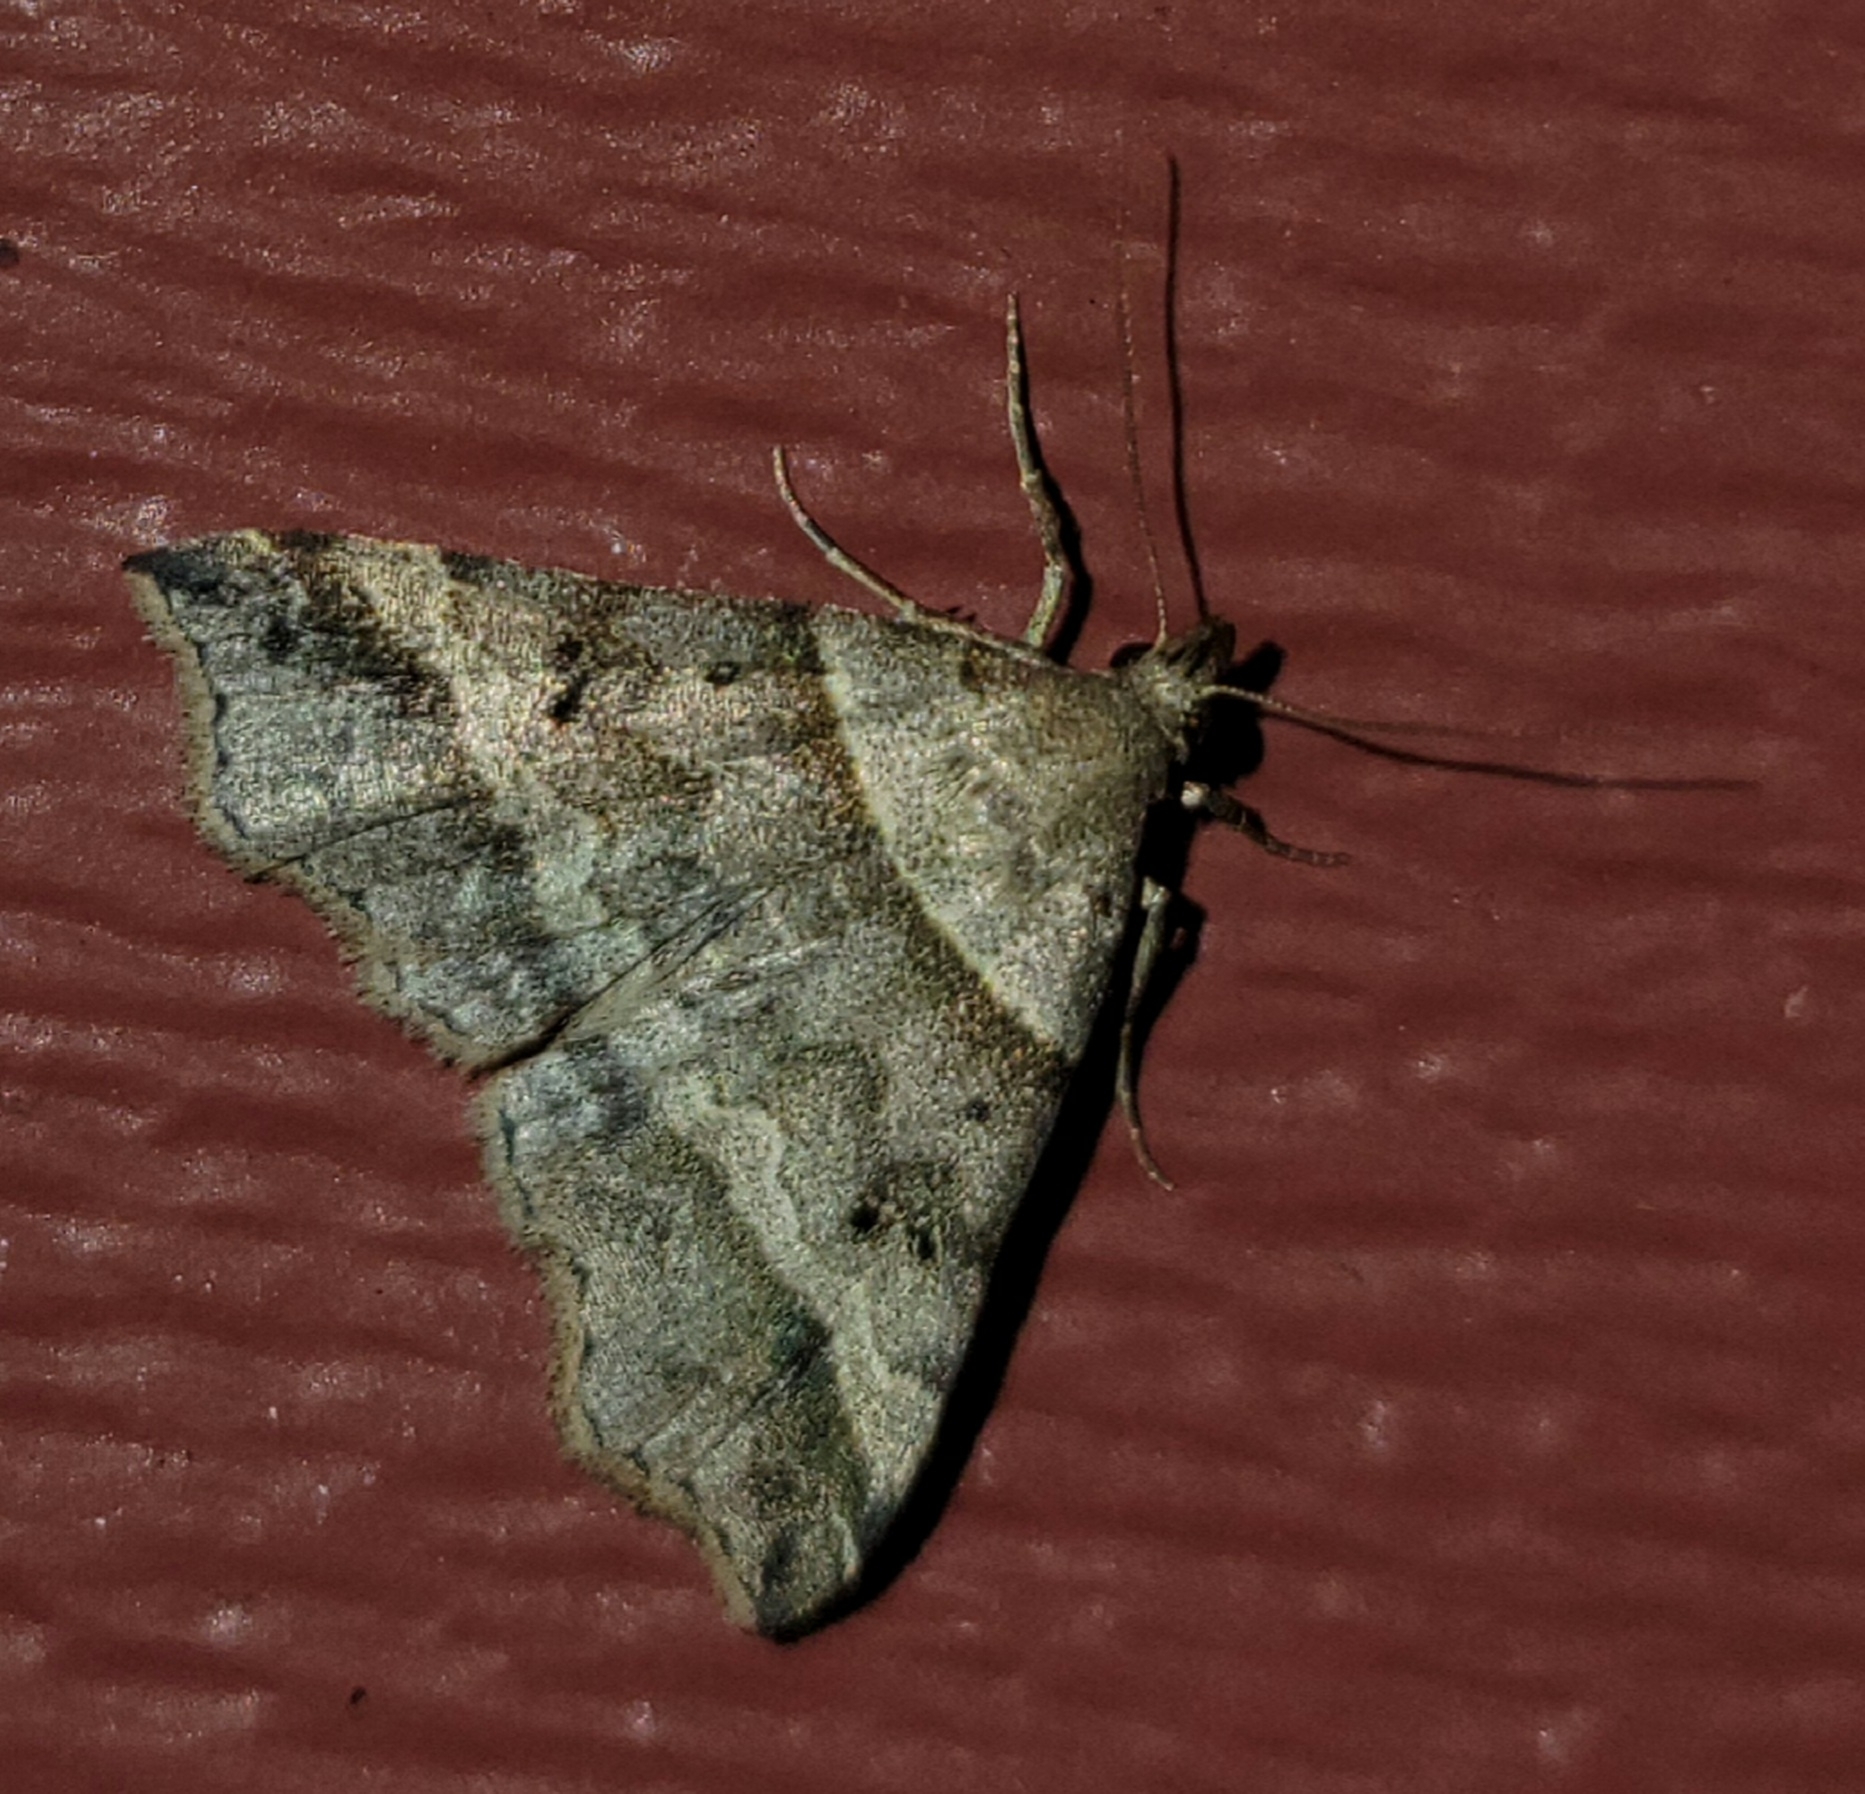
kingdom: Animalia
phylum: Arthropoda
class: Insecta
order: Lepidoptera
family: Erebidae
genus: Phaeolita
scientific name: Phaeolita pyramusalis
